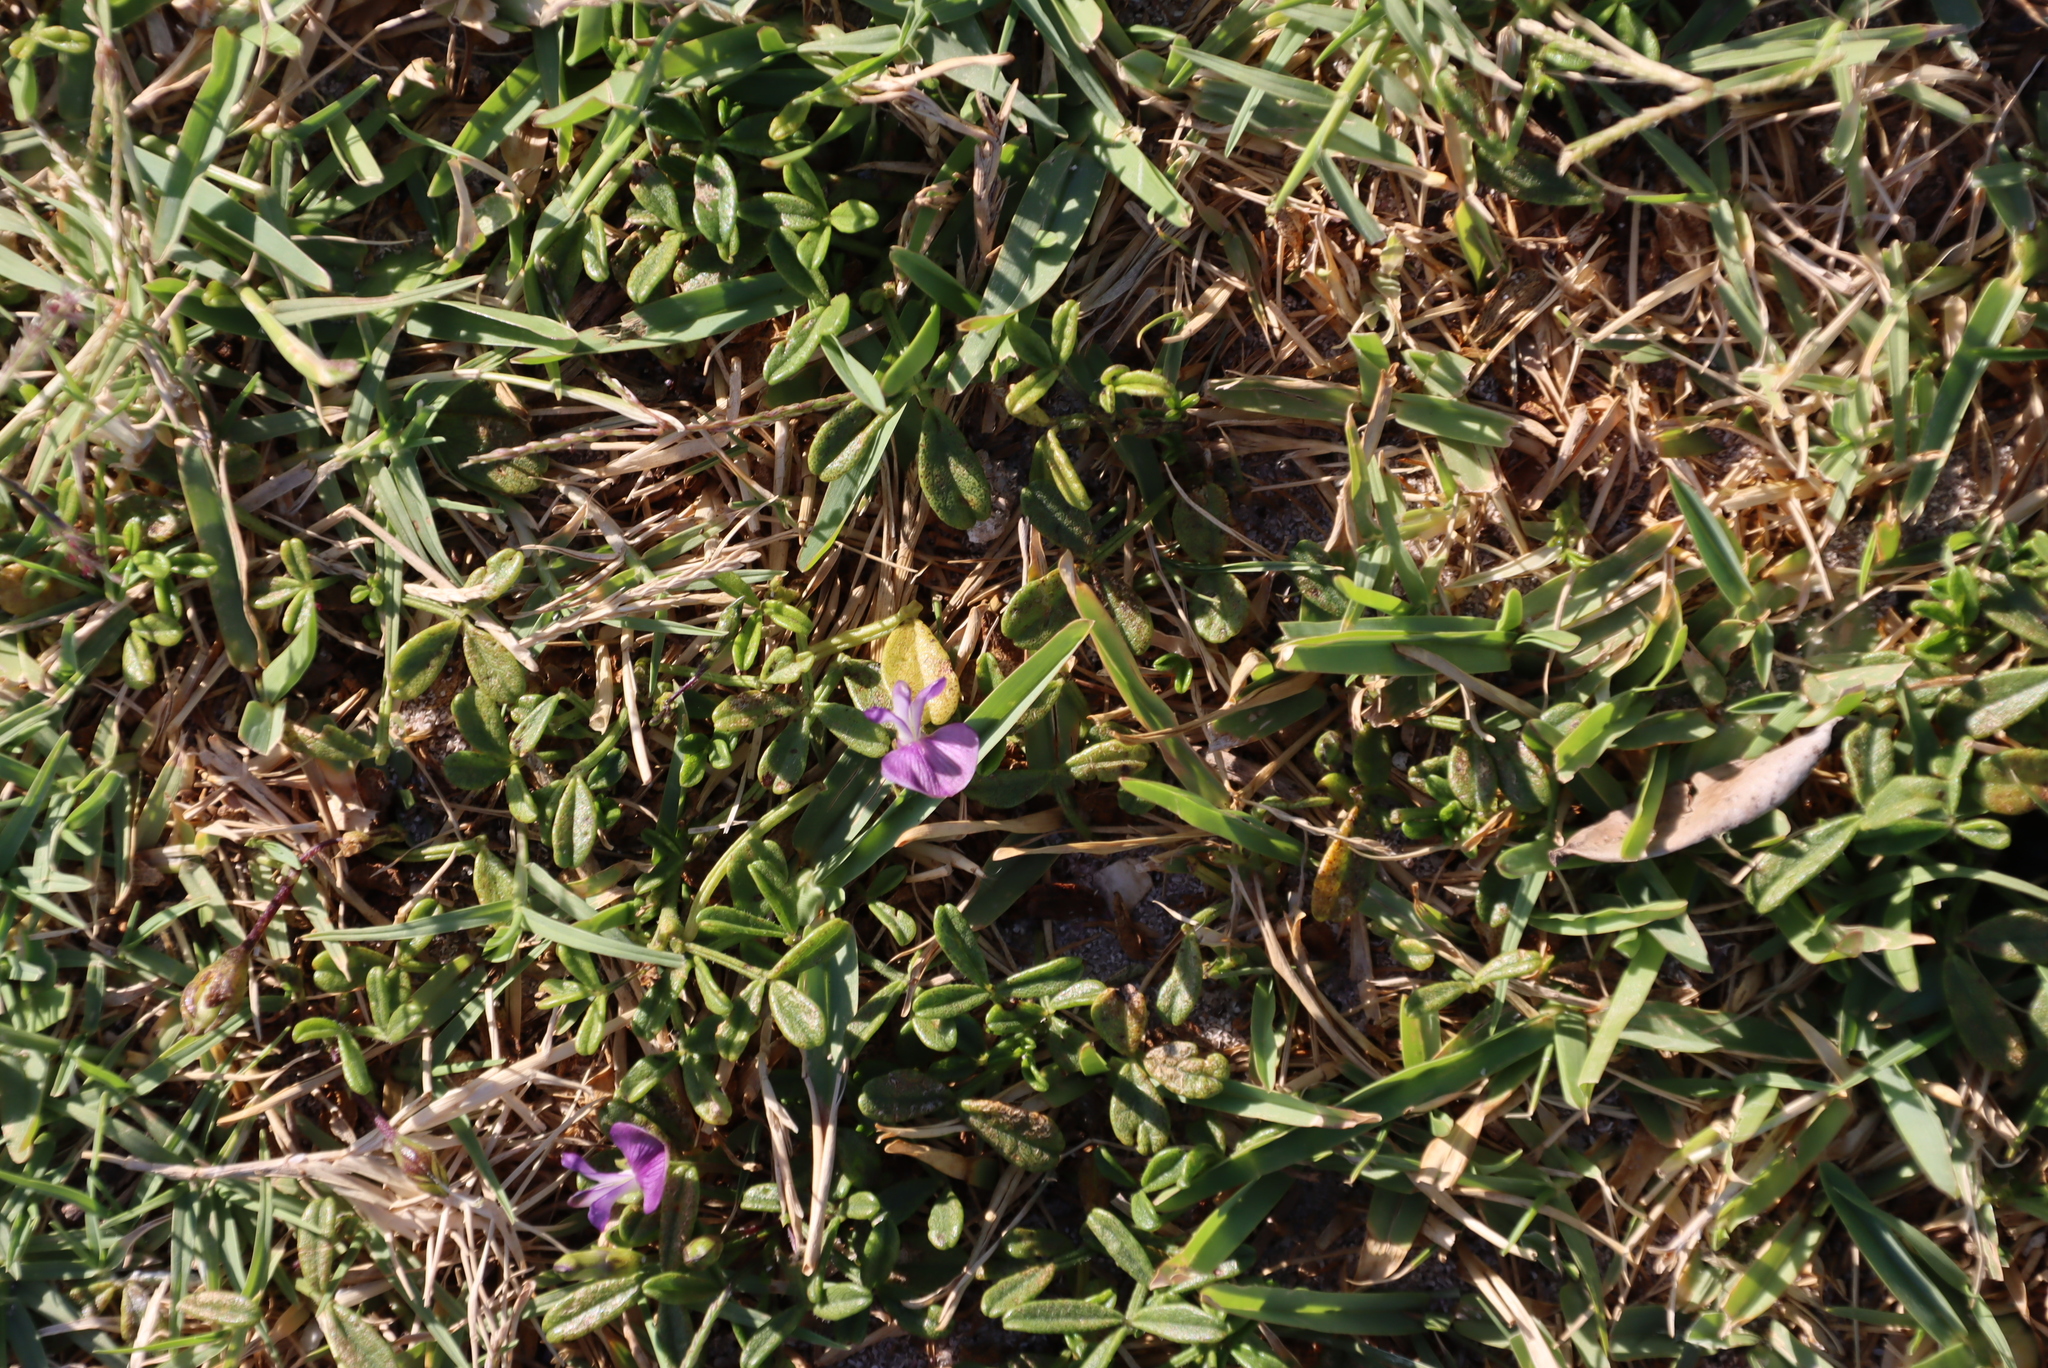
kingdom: Plantae
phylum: Tracheophyta
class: Magnoliopsida
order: Fabales
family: Fabaceae
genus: Psoralea
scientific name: Psoralea repens
